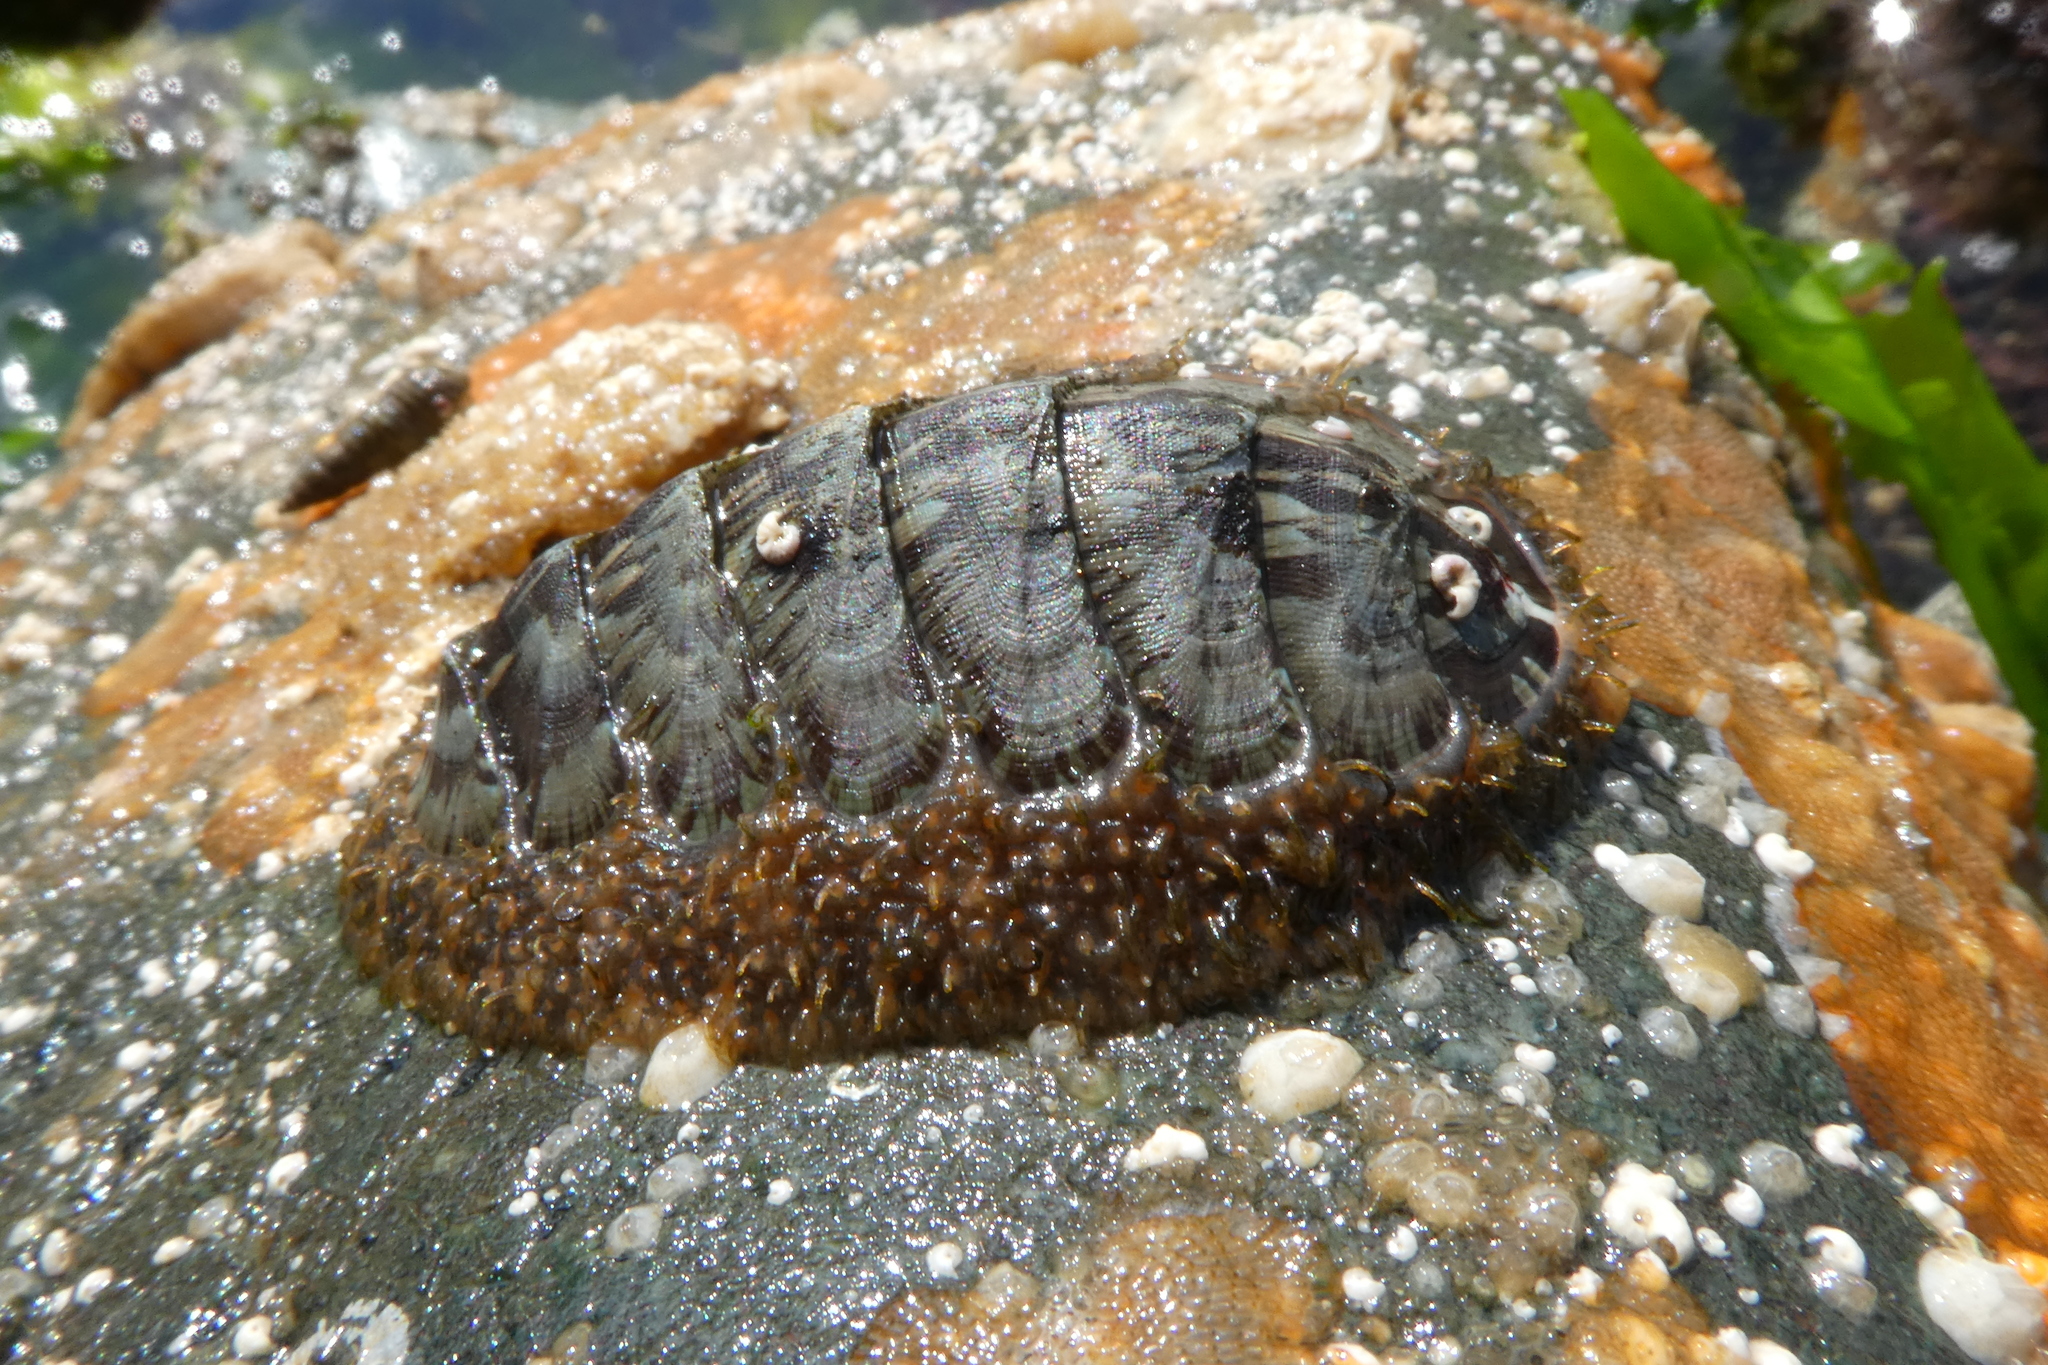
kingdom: Animalia
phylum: Mollusca
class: Polyplacophora
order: Chitonida
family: Mopaliidae
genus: Mopalia
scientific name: Mopalia lignosa
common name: Woody chiton
